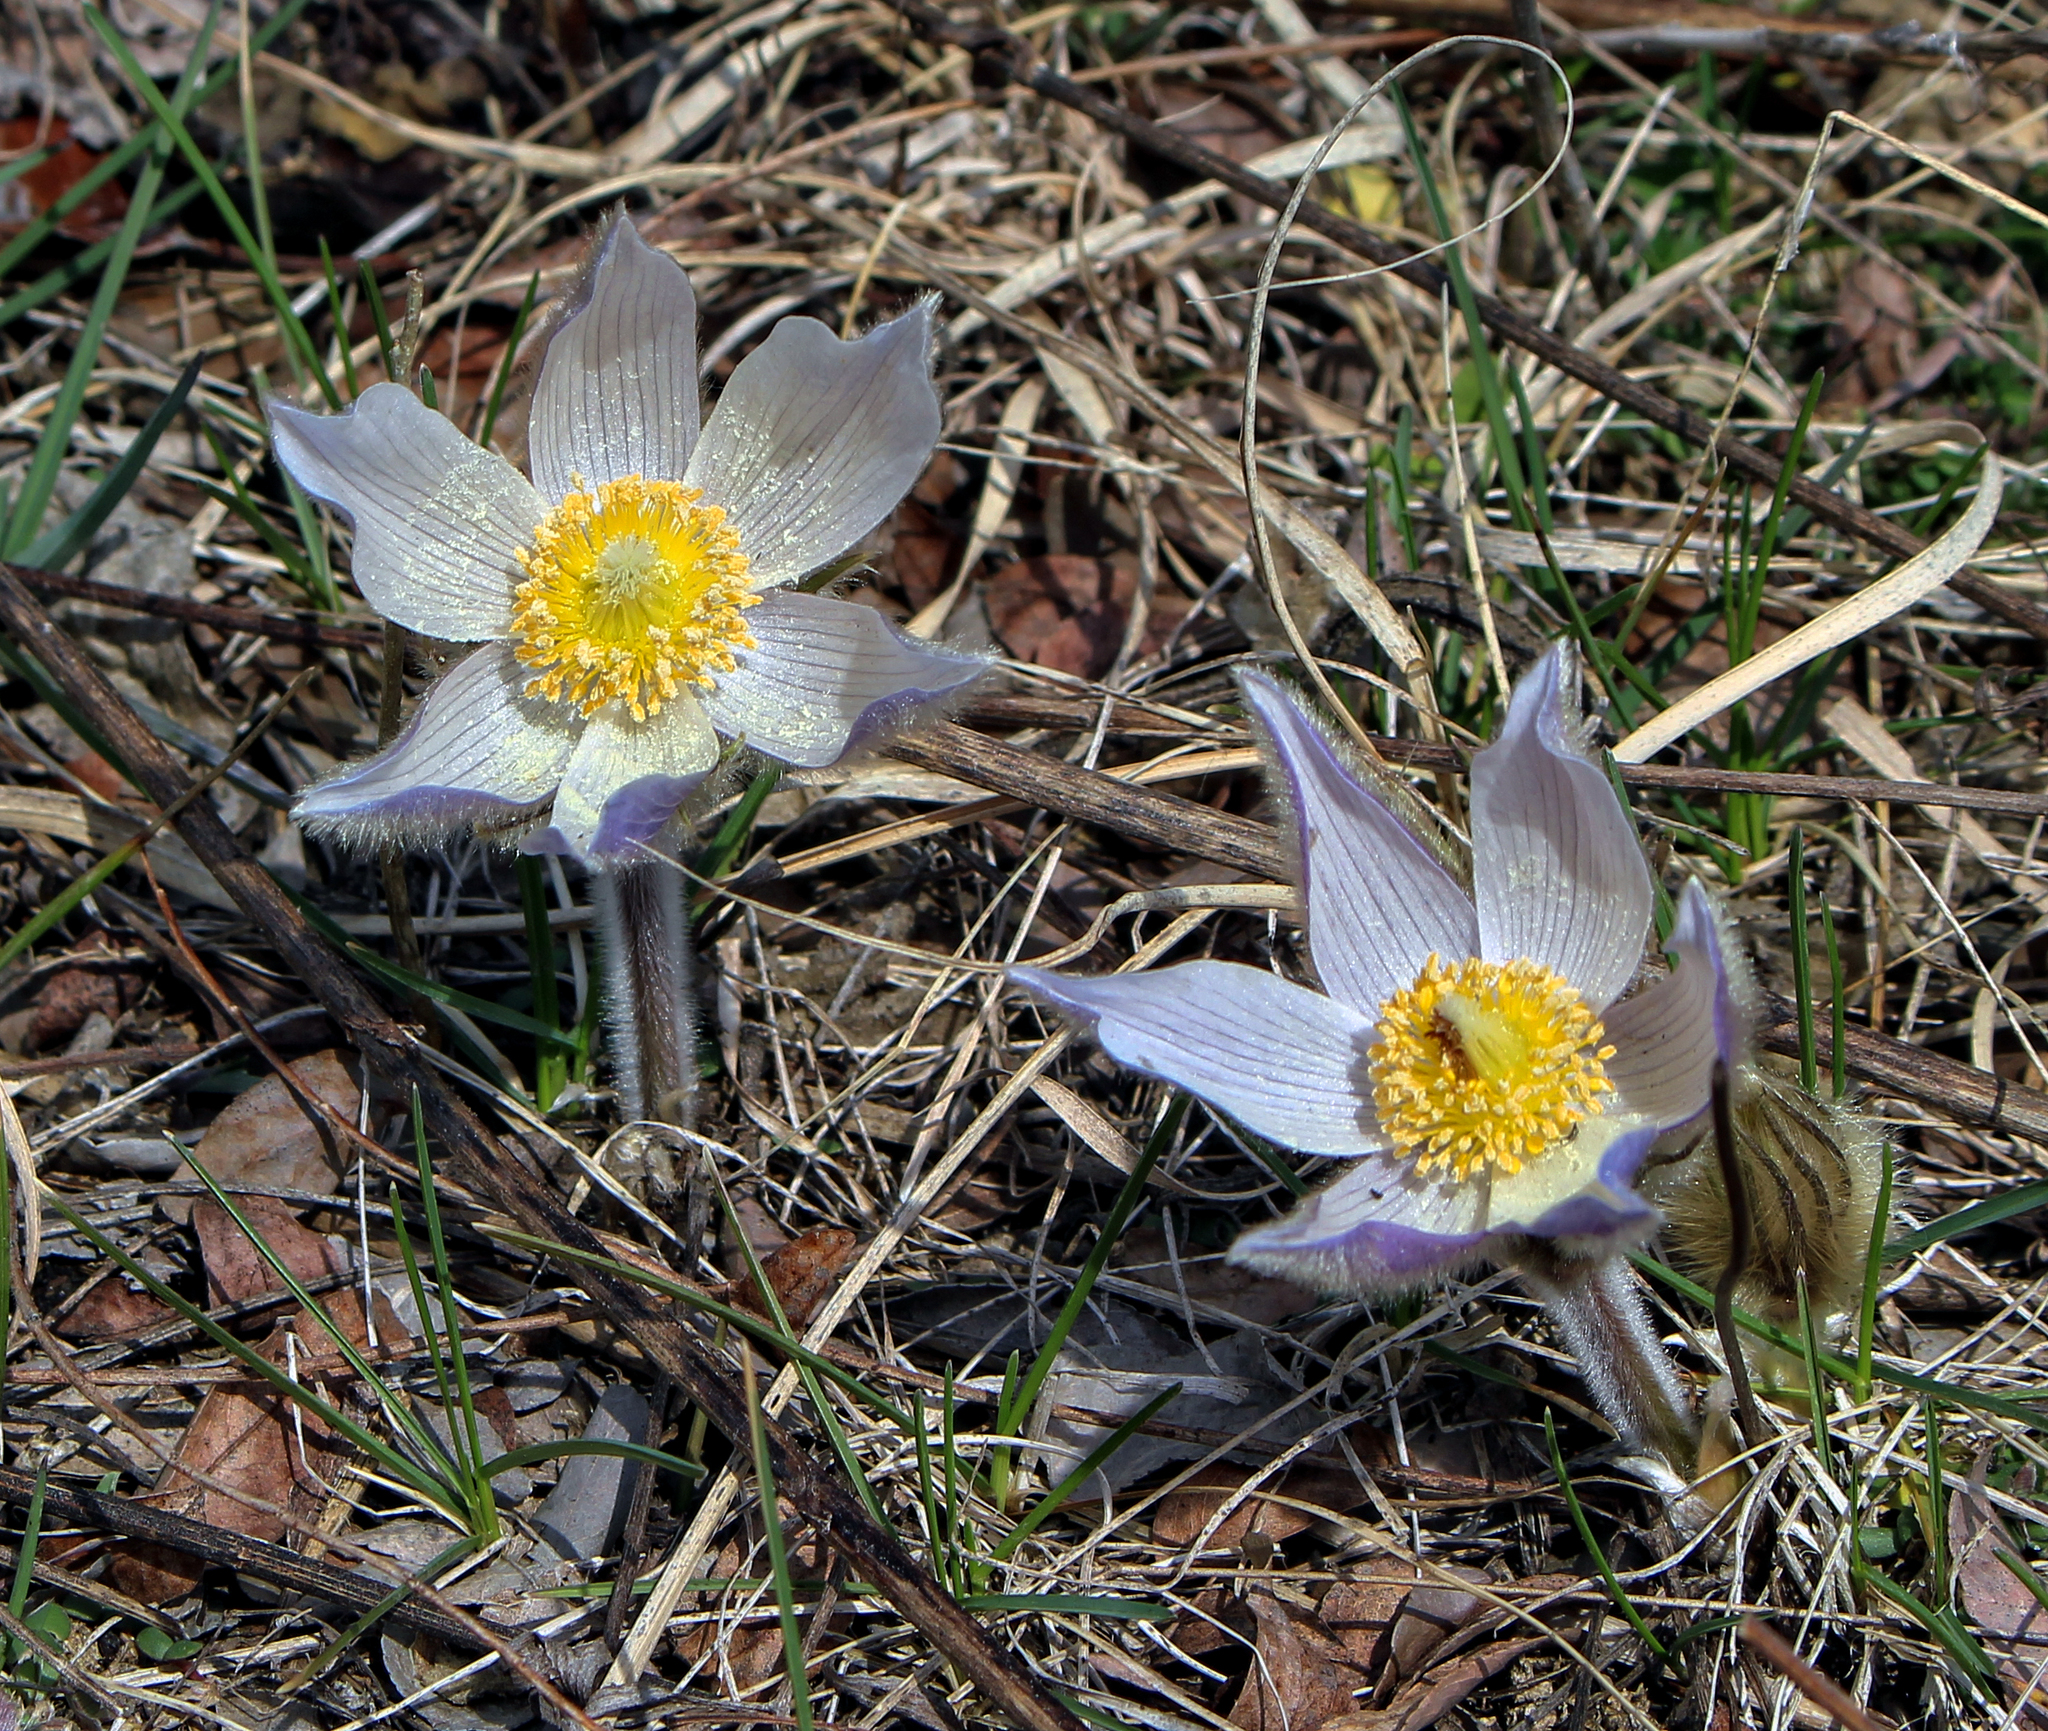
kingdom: Plantae
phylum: Tracheophyta
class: Magnoliopsida
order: Ranunculales
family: Ranunculaceae
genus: Pulsatilla
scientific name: Pulsatilla nuttalliana
